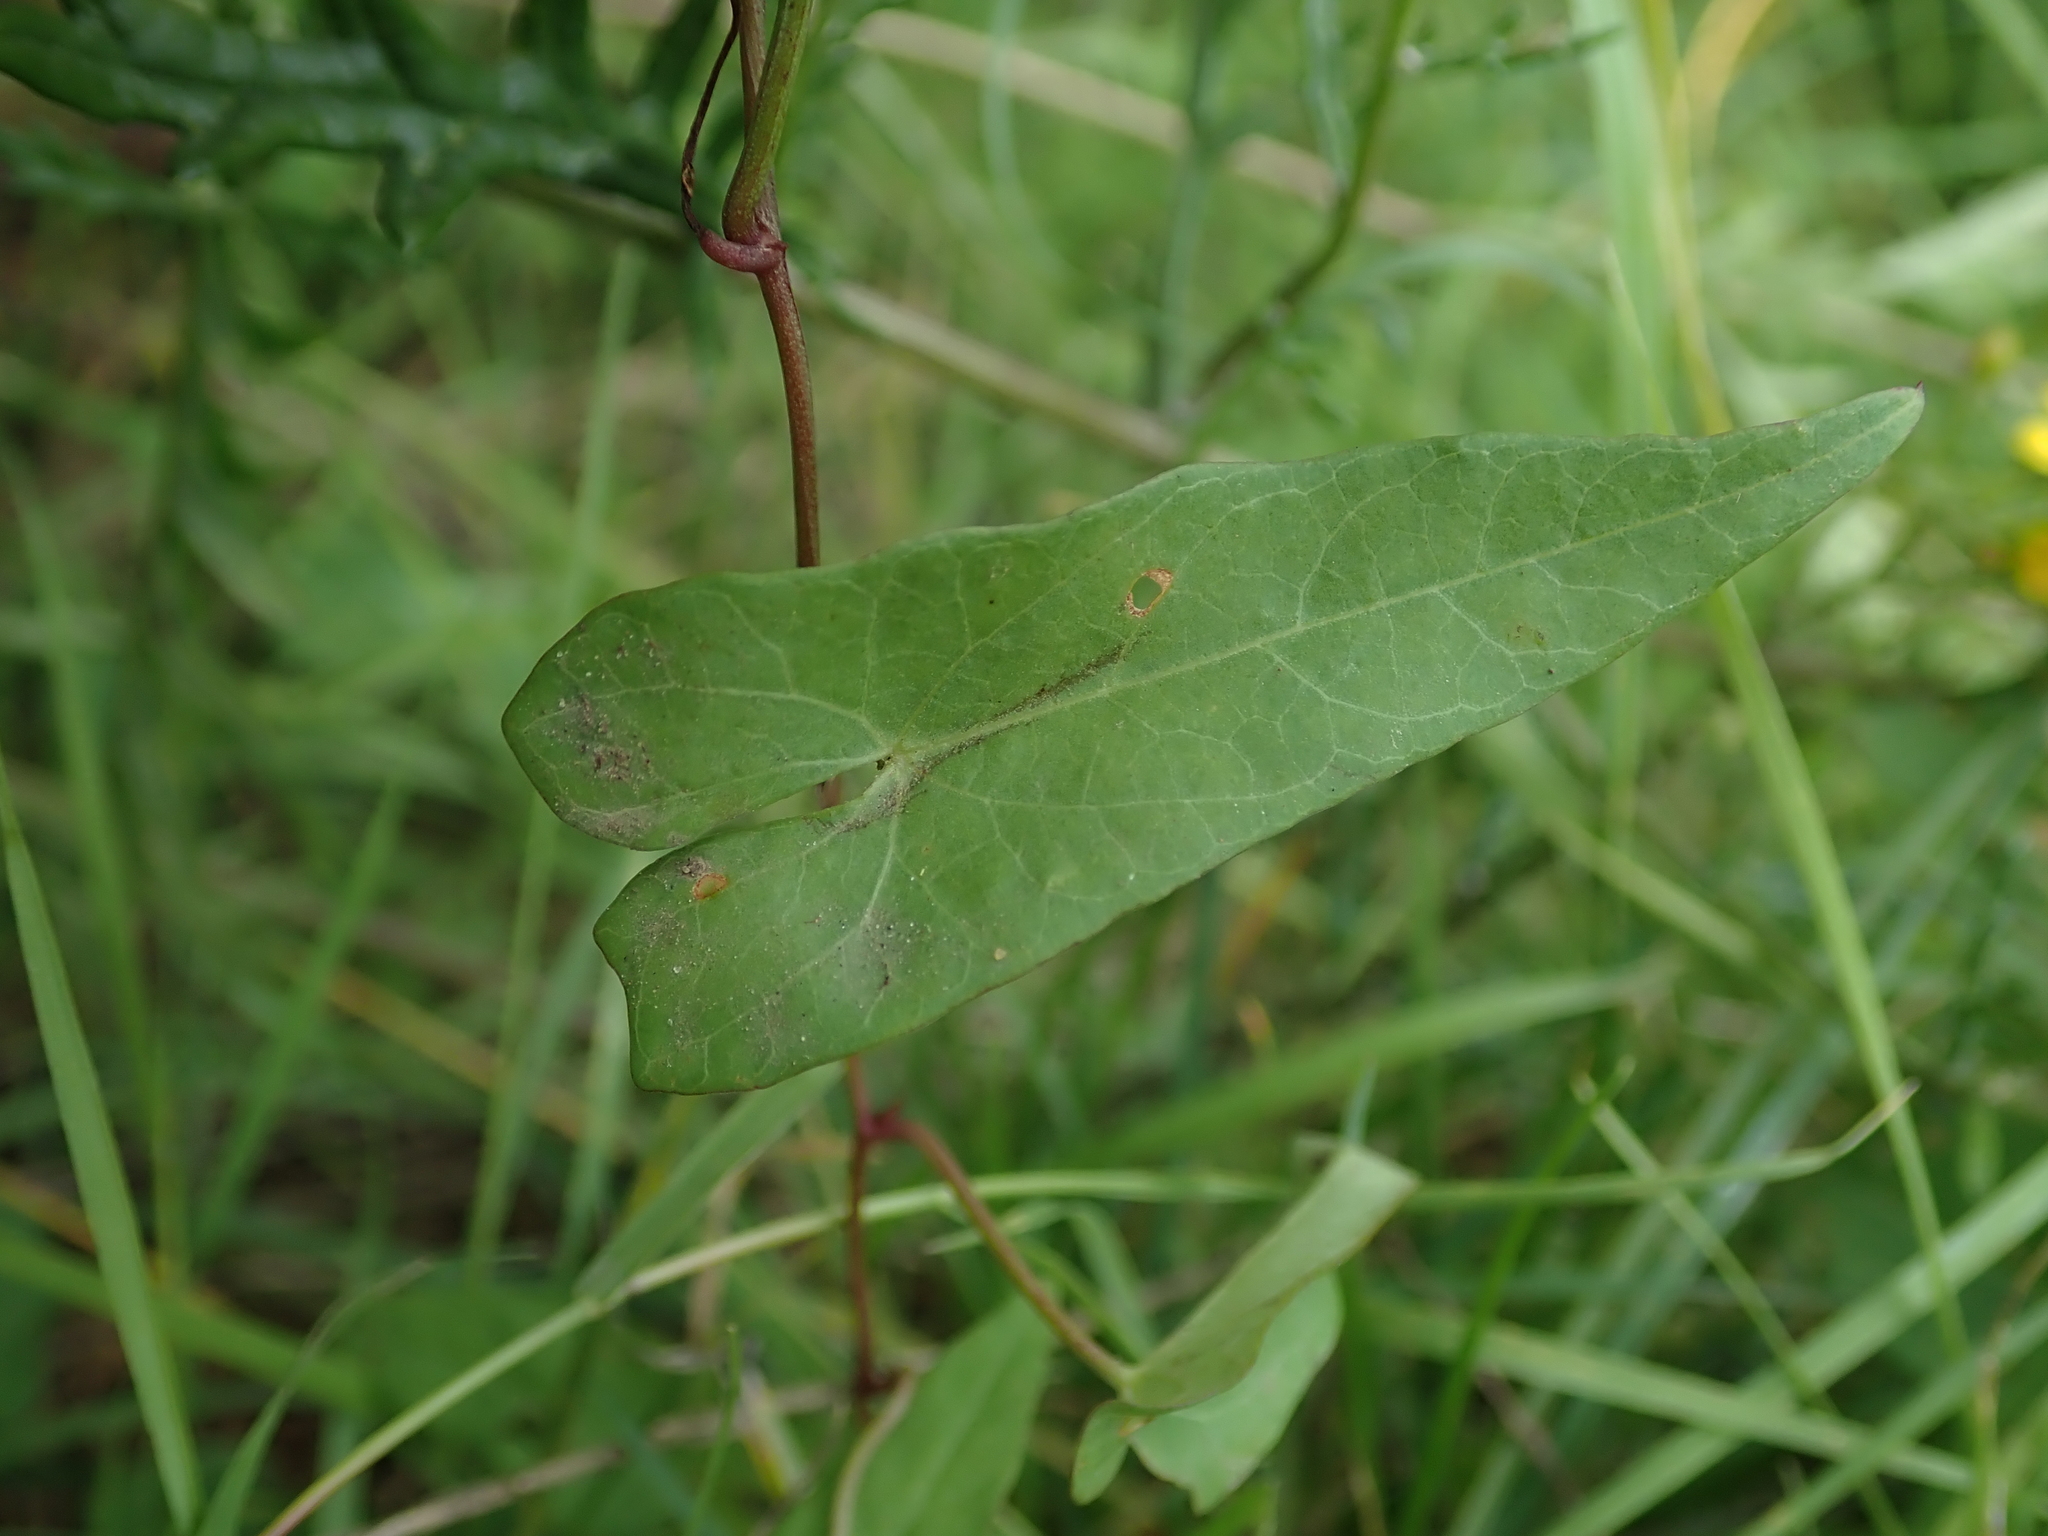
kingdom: Plantae
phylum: Tracheophyta
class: Magnoliopsida
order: Solanales
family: Convolvulaceae
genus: Calystegia
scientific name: Calystegia sepium
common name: Hedge bindweed
